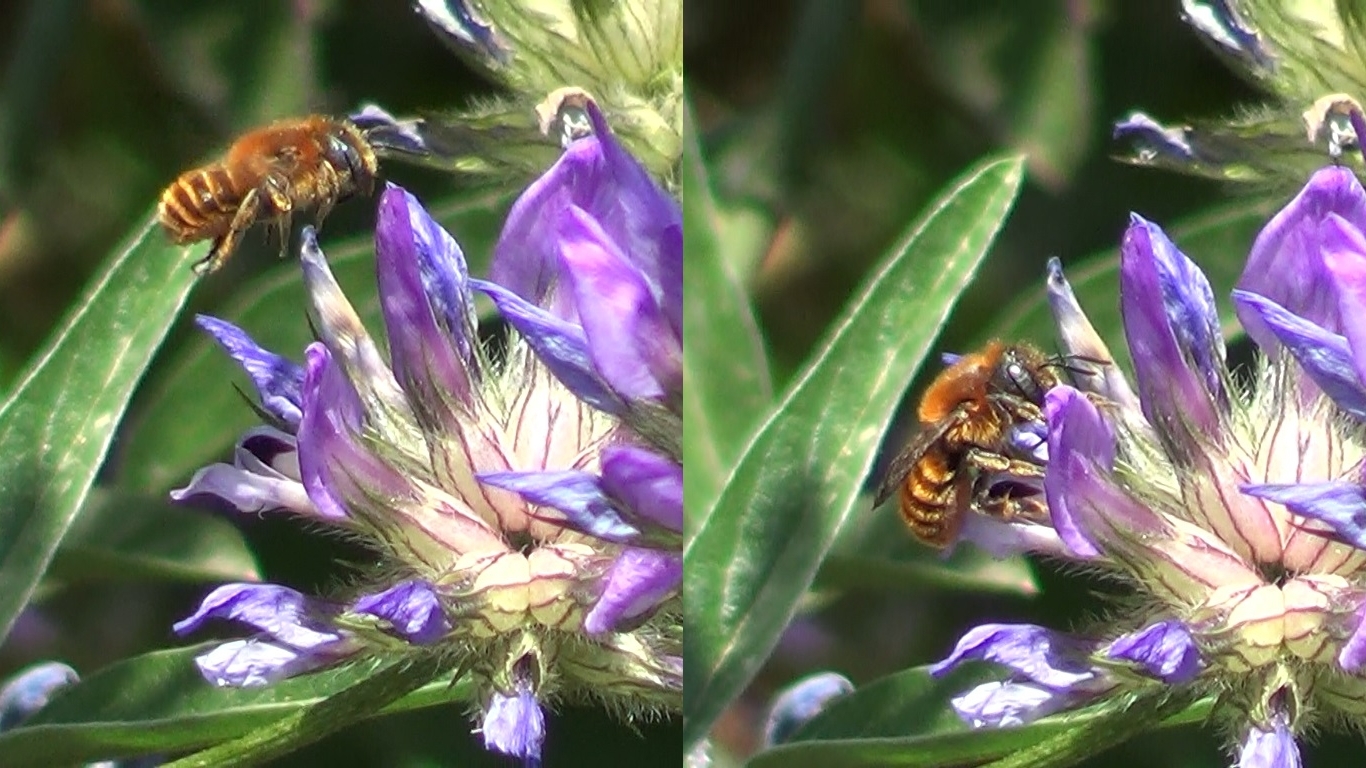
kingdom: Animalia
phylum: Arthropoda
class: Insecta
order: Hymenoptera
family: Megachilidae
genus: Osmia
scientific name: Osmia aurulenta
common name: Gold-fringed mason bee
